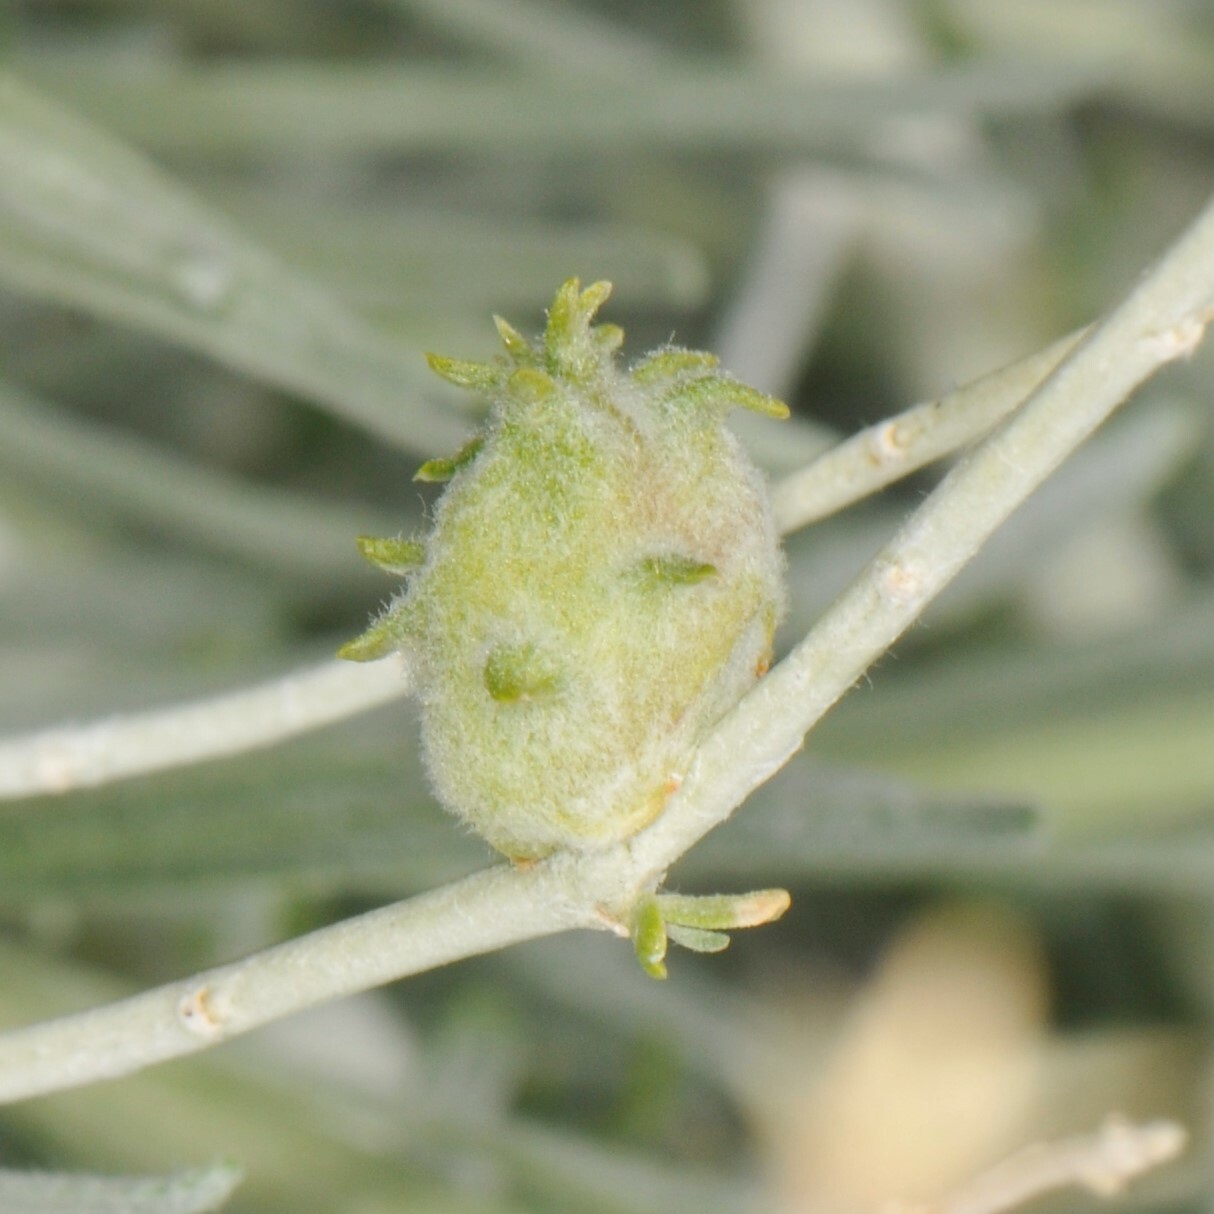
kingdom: Animalia
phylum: Arthropoda
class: Insecta
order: Diptera
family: Cecidomyiidae
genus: Rhopalomyia
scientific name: Rhopalomyia utahensis
